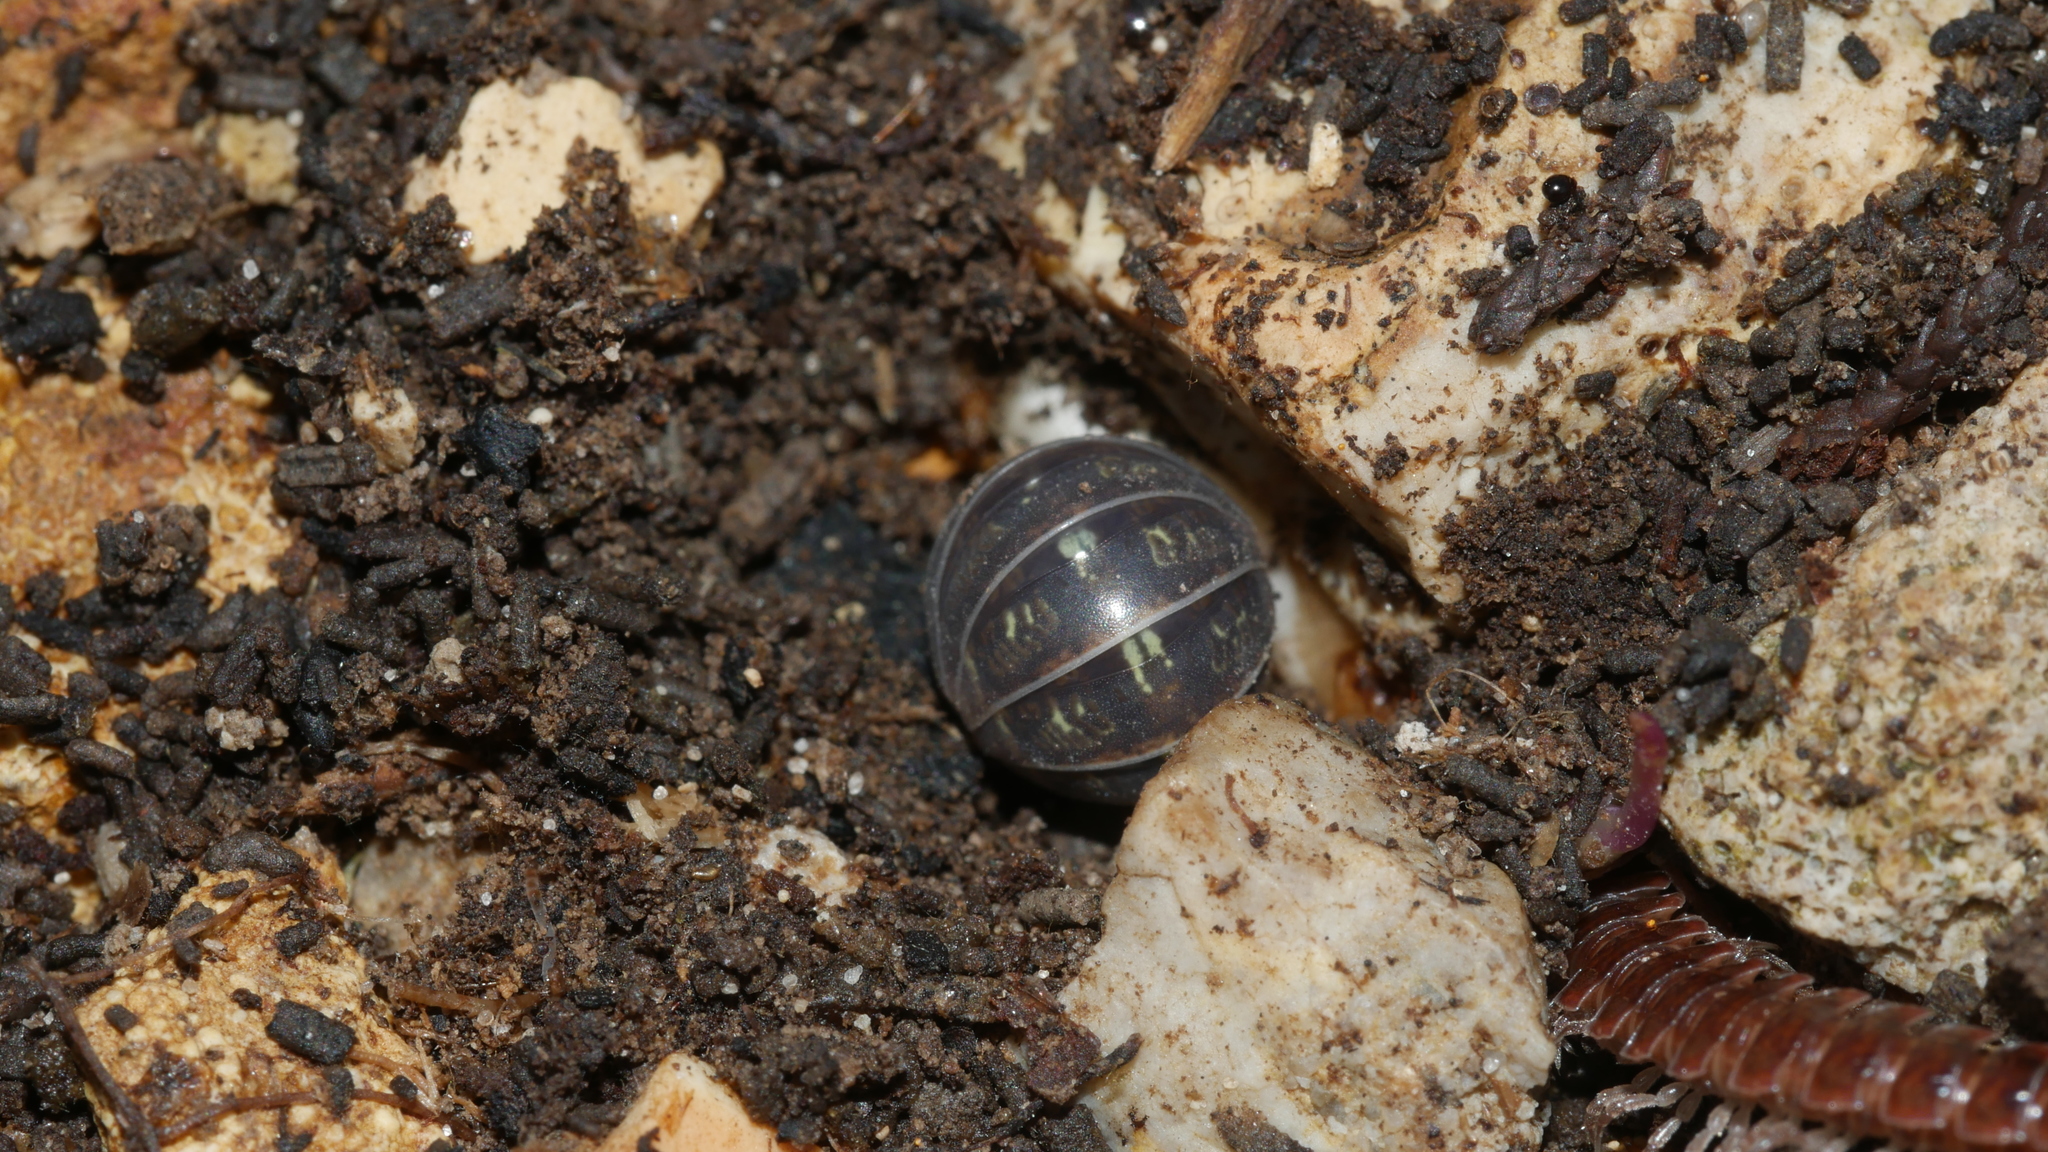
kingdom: Animalia
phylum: Arthropoda
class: Malacostraca
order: Isopoda
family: Armadillidiidae
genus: Armadillidium
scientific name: Armadillidium vulgare
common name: Common pill woodlouse
